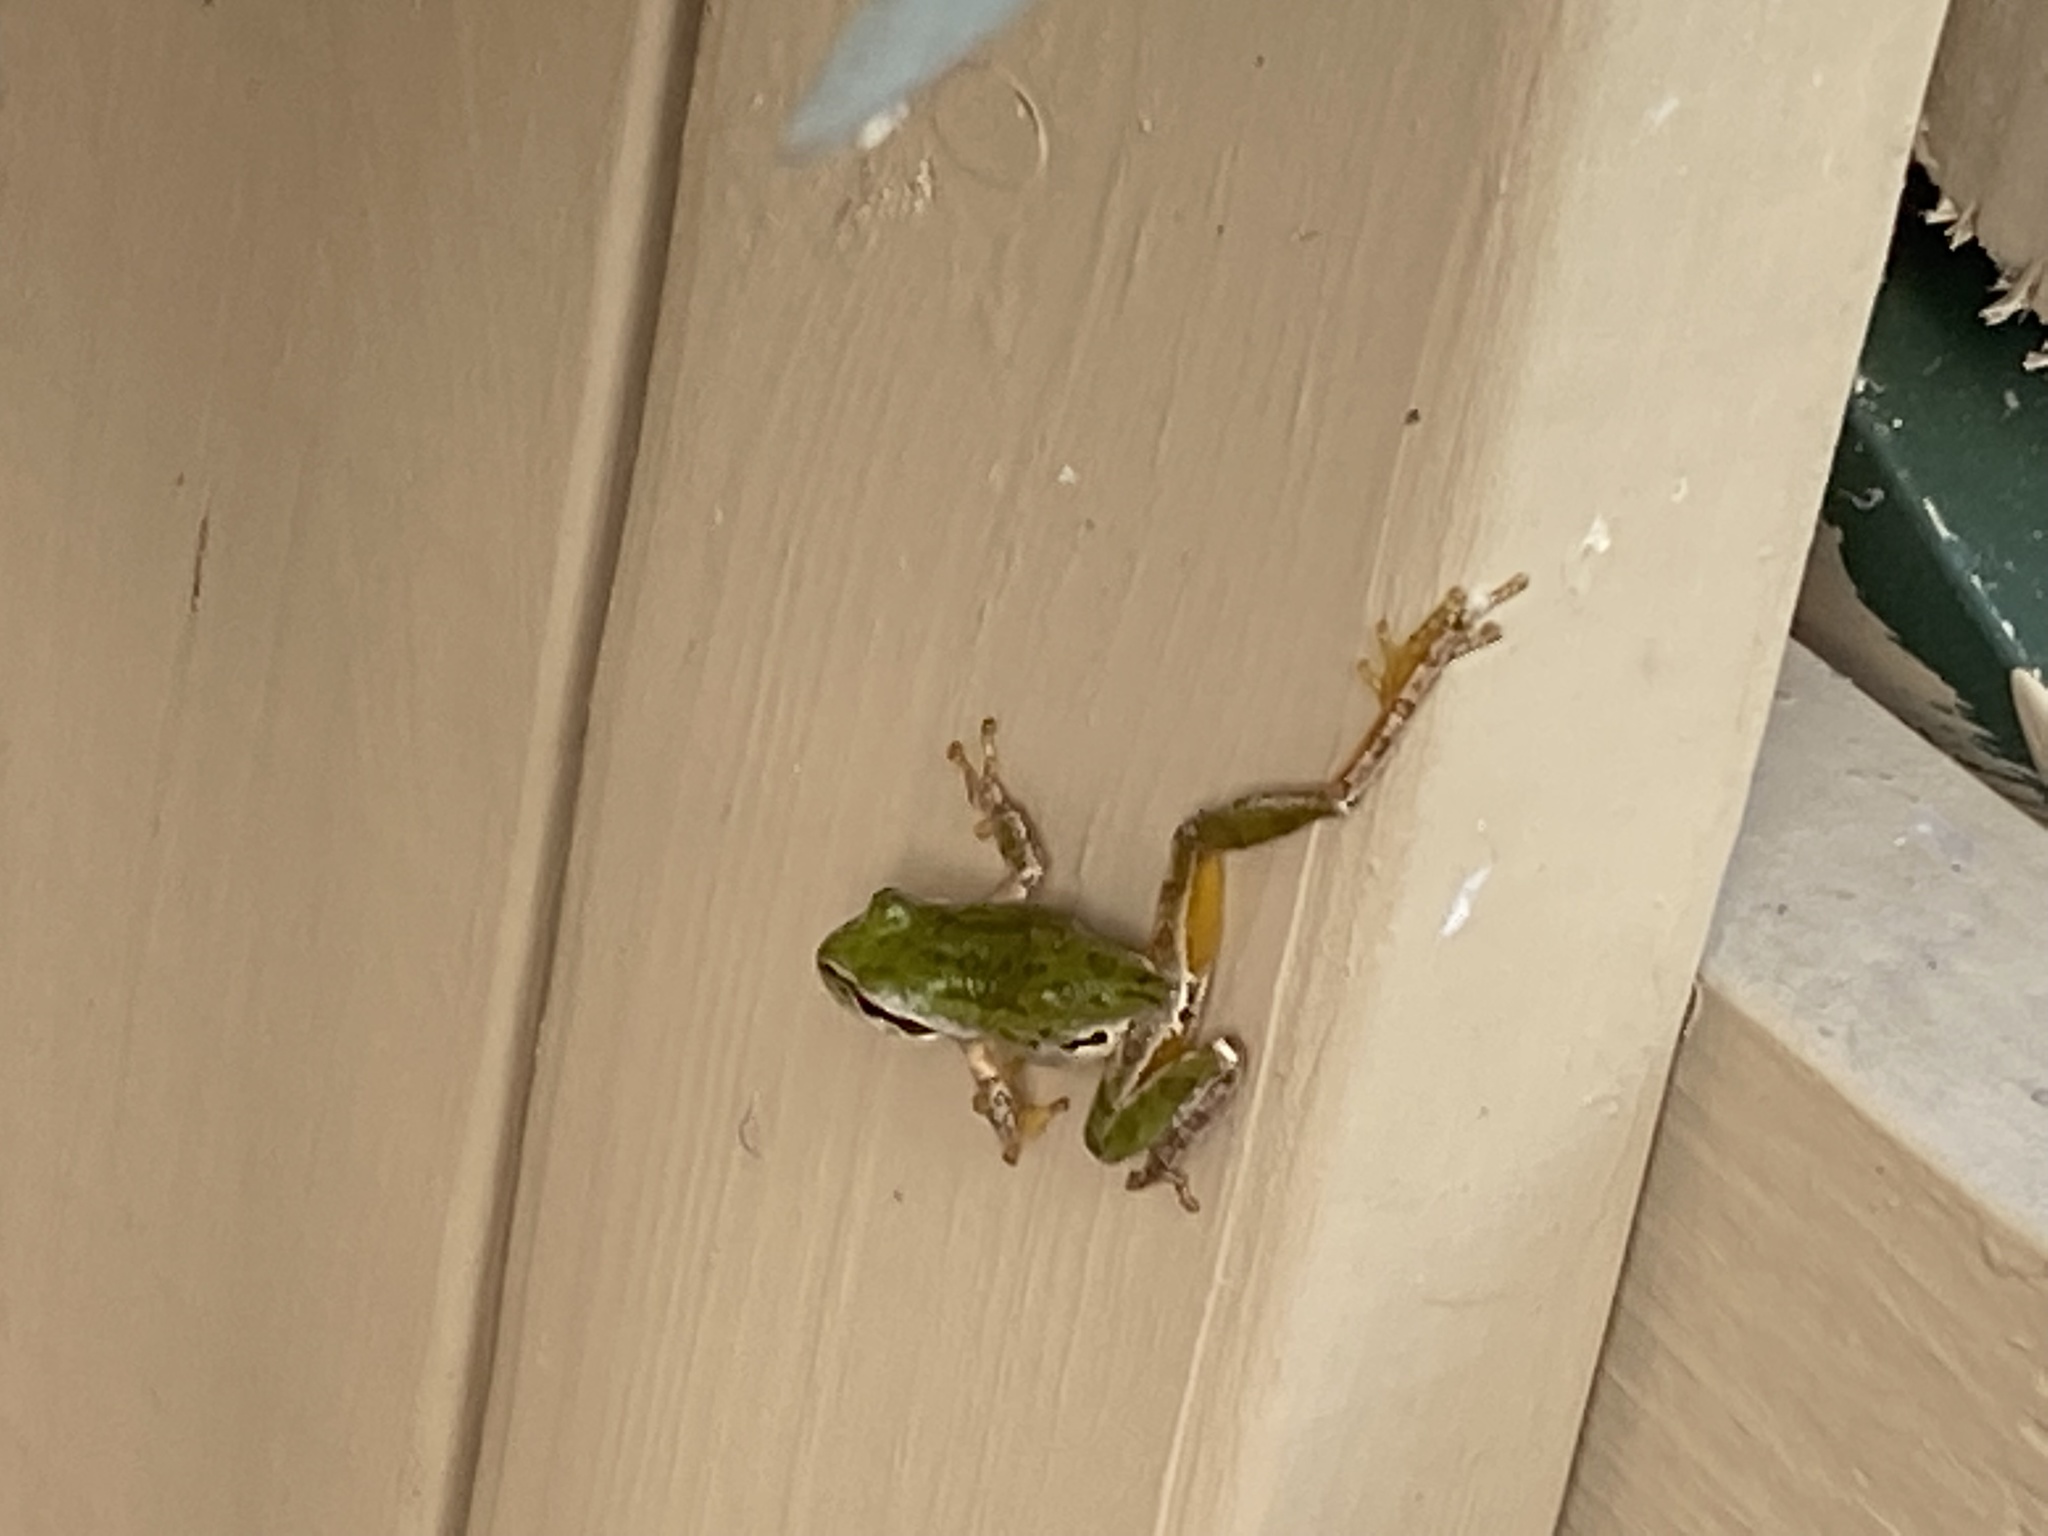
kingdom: Animalia
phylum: Chordata
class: Amphibia
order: Anura
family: Hylidae
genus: Pseudacris
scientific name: Pseudacris regilla
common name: Pacific chorus frog
